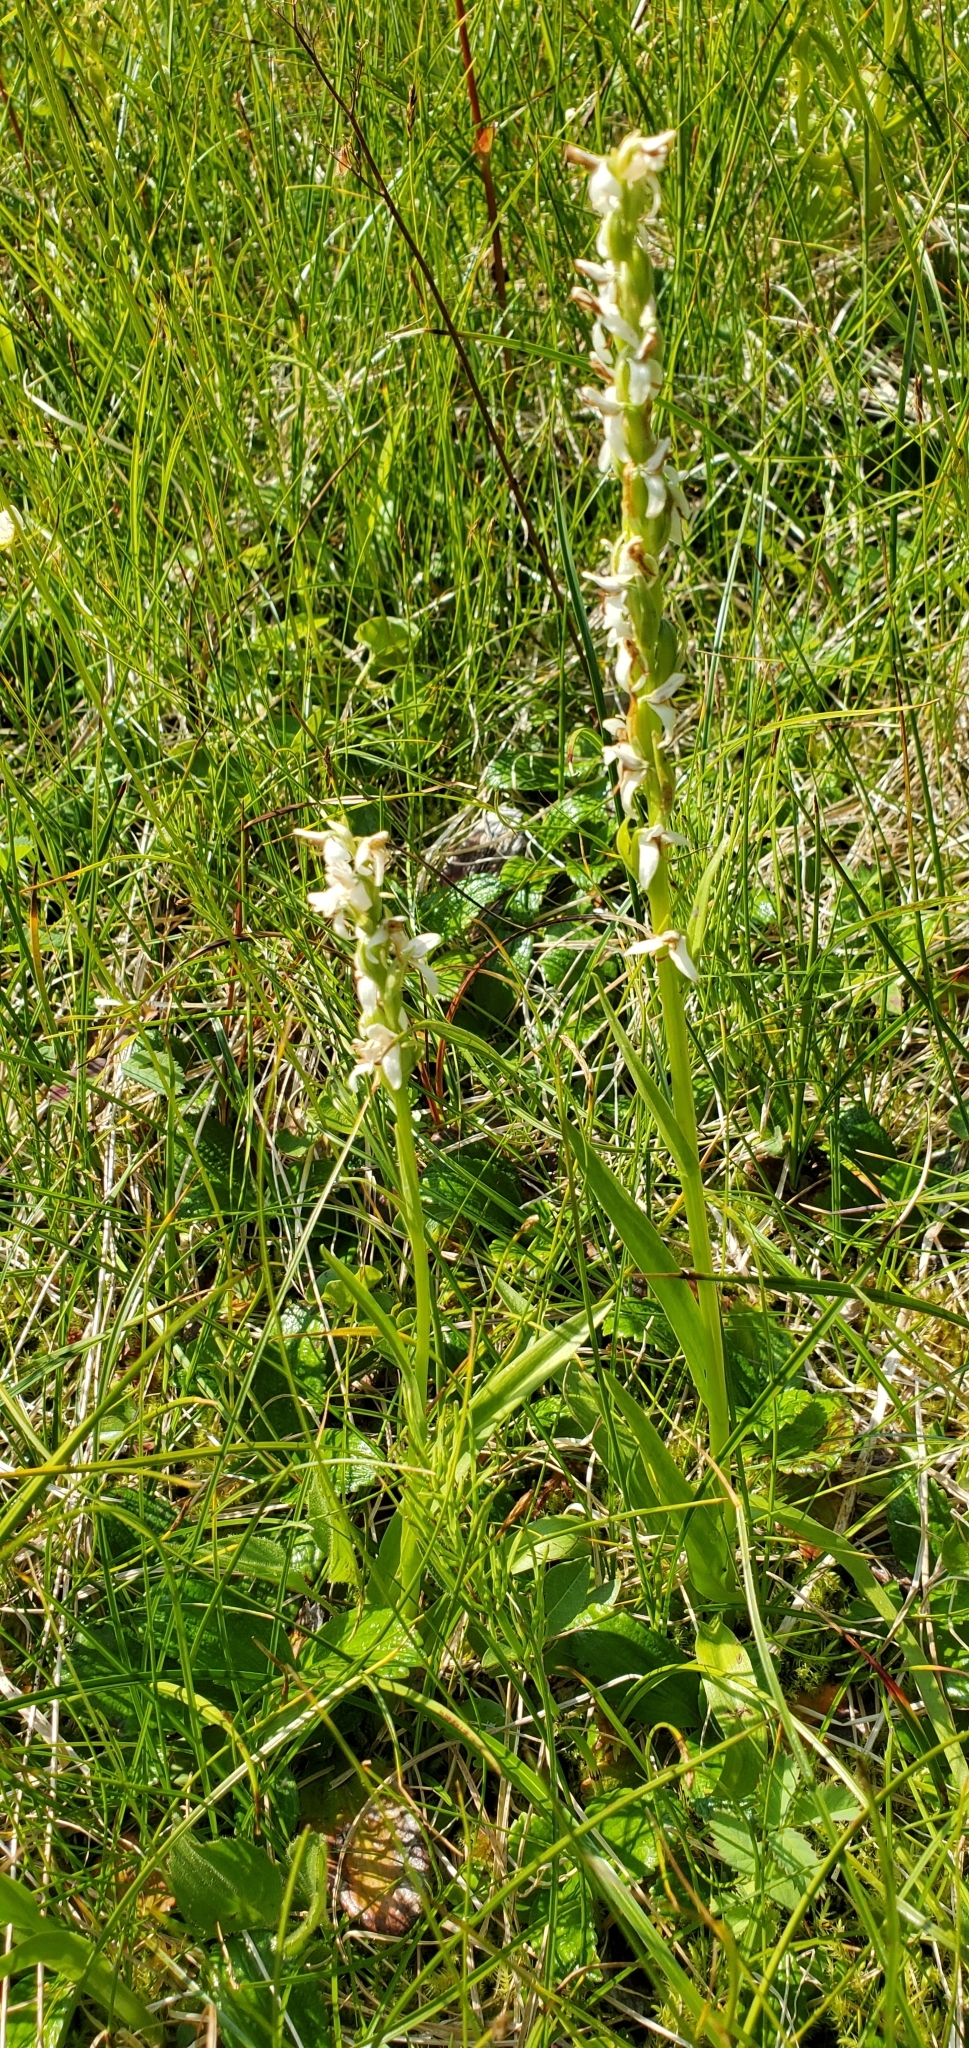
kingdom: Plantae
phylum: Tracheophyta
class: Liliopsida
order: Asparagales
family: Orchidaceae
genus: Platanthera
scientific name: Platanthera dilatata
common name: Bog candles
